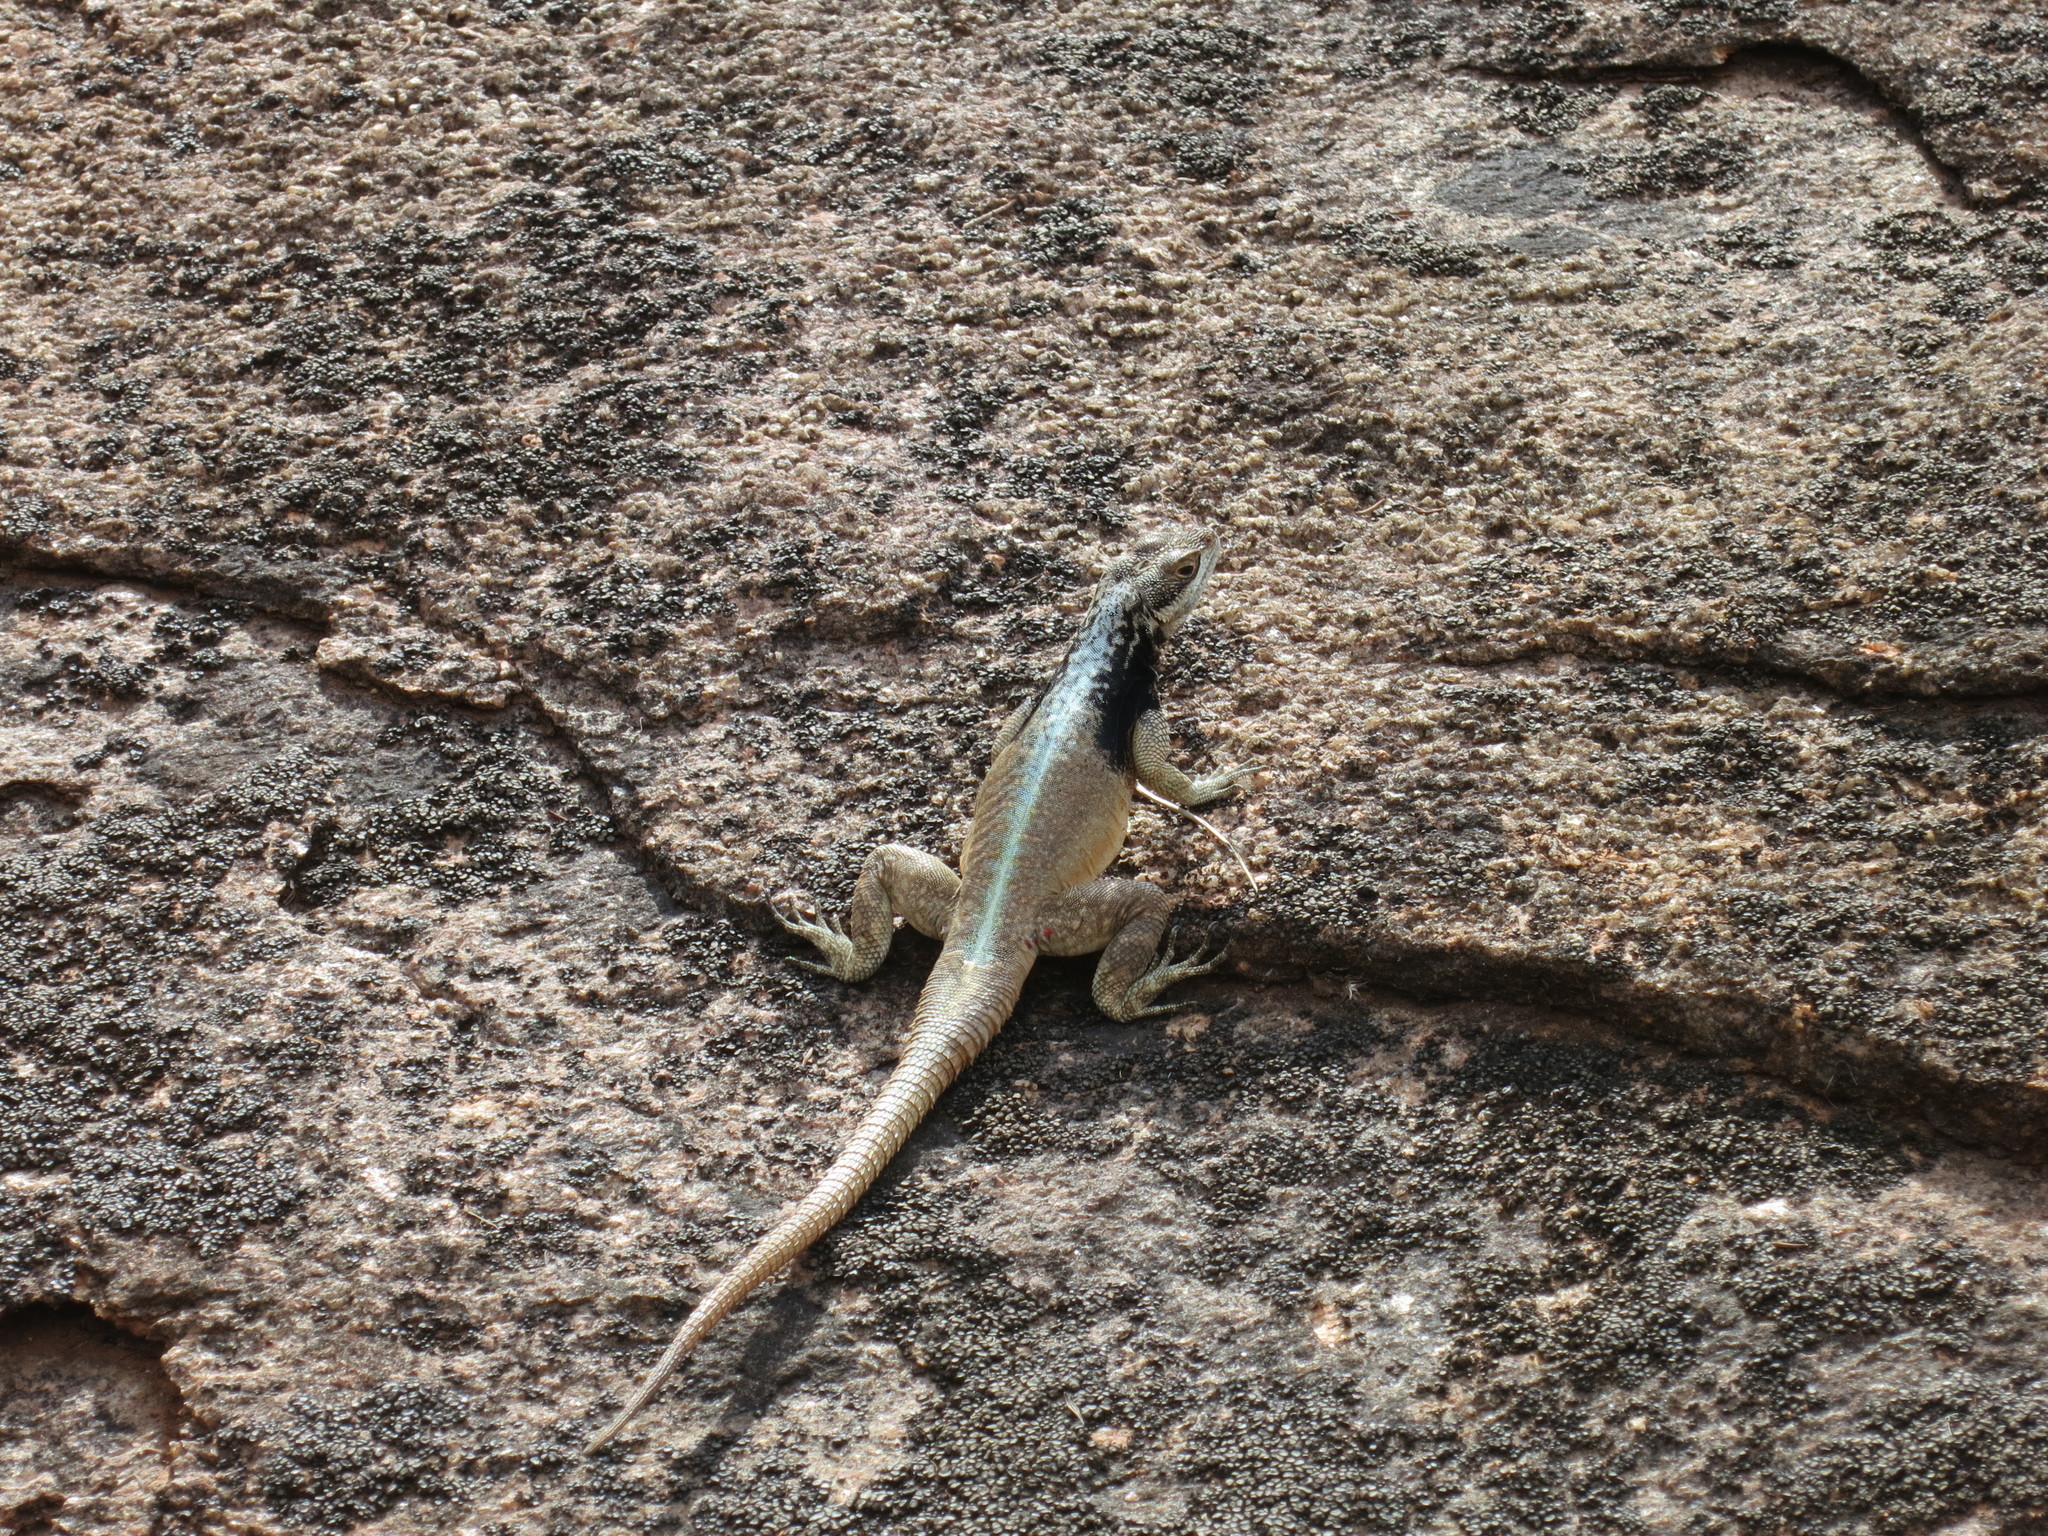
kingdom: Animalia
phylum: Chordata
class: Squamata
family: Opluridae
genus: Oplurus
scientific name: Oplurus grandidieri
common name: Grandidier's madagascar swift
